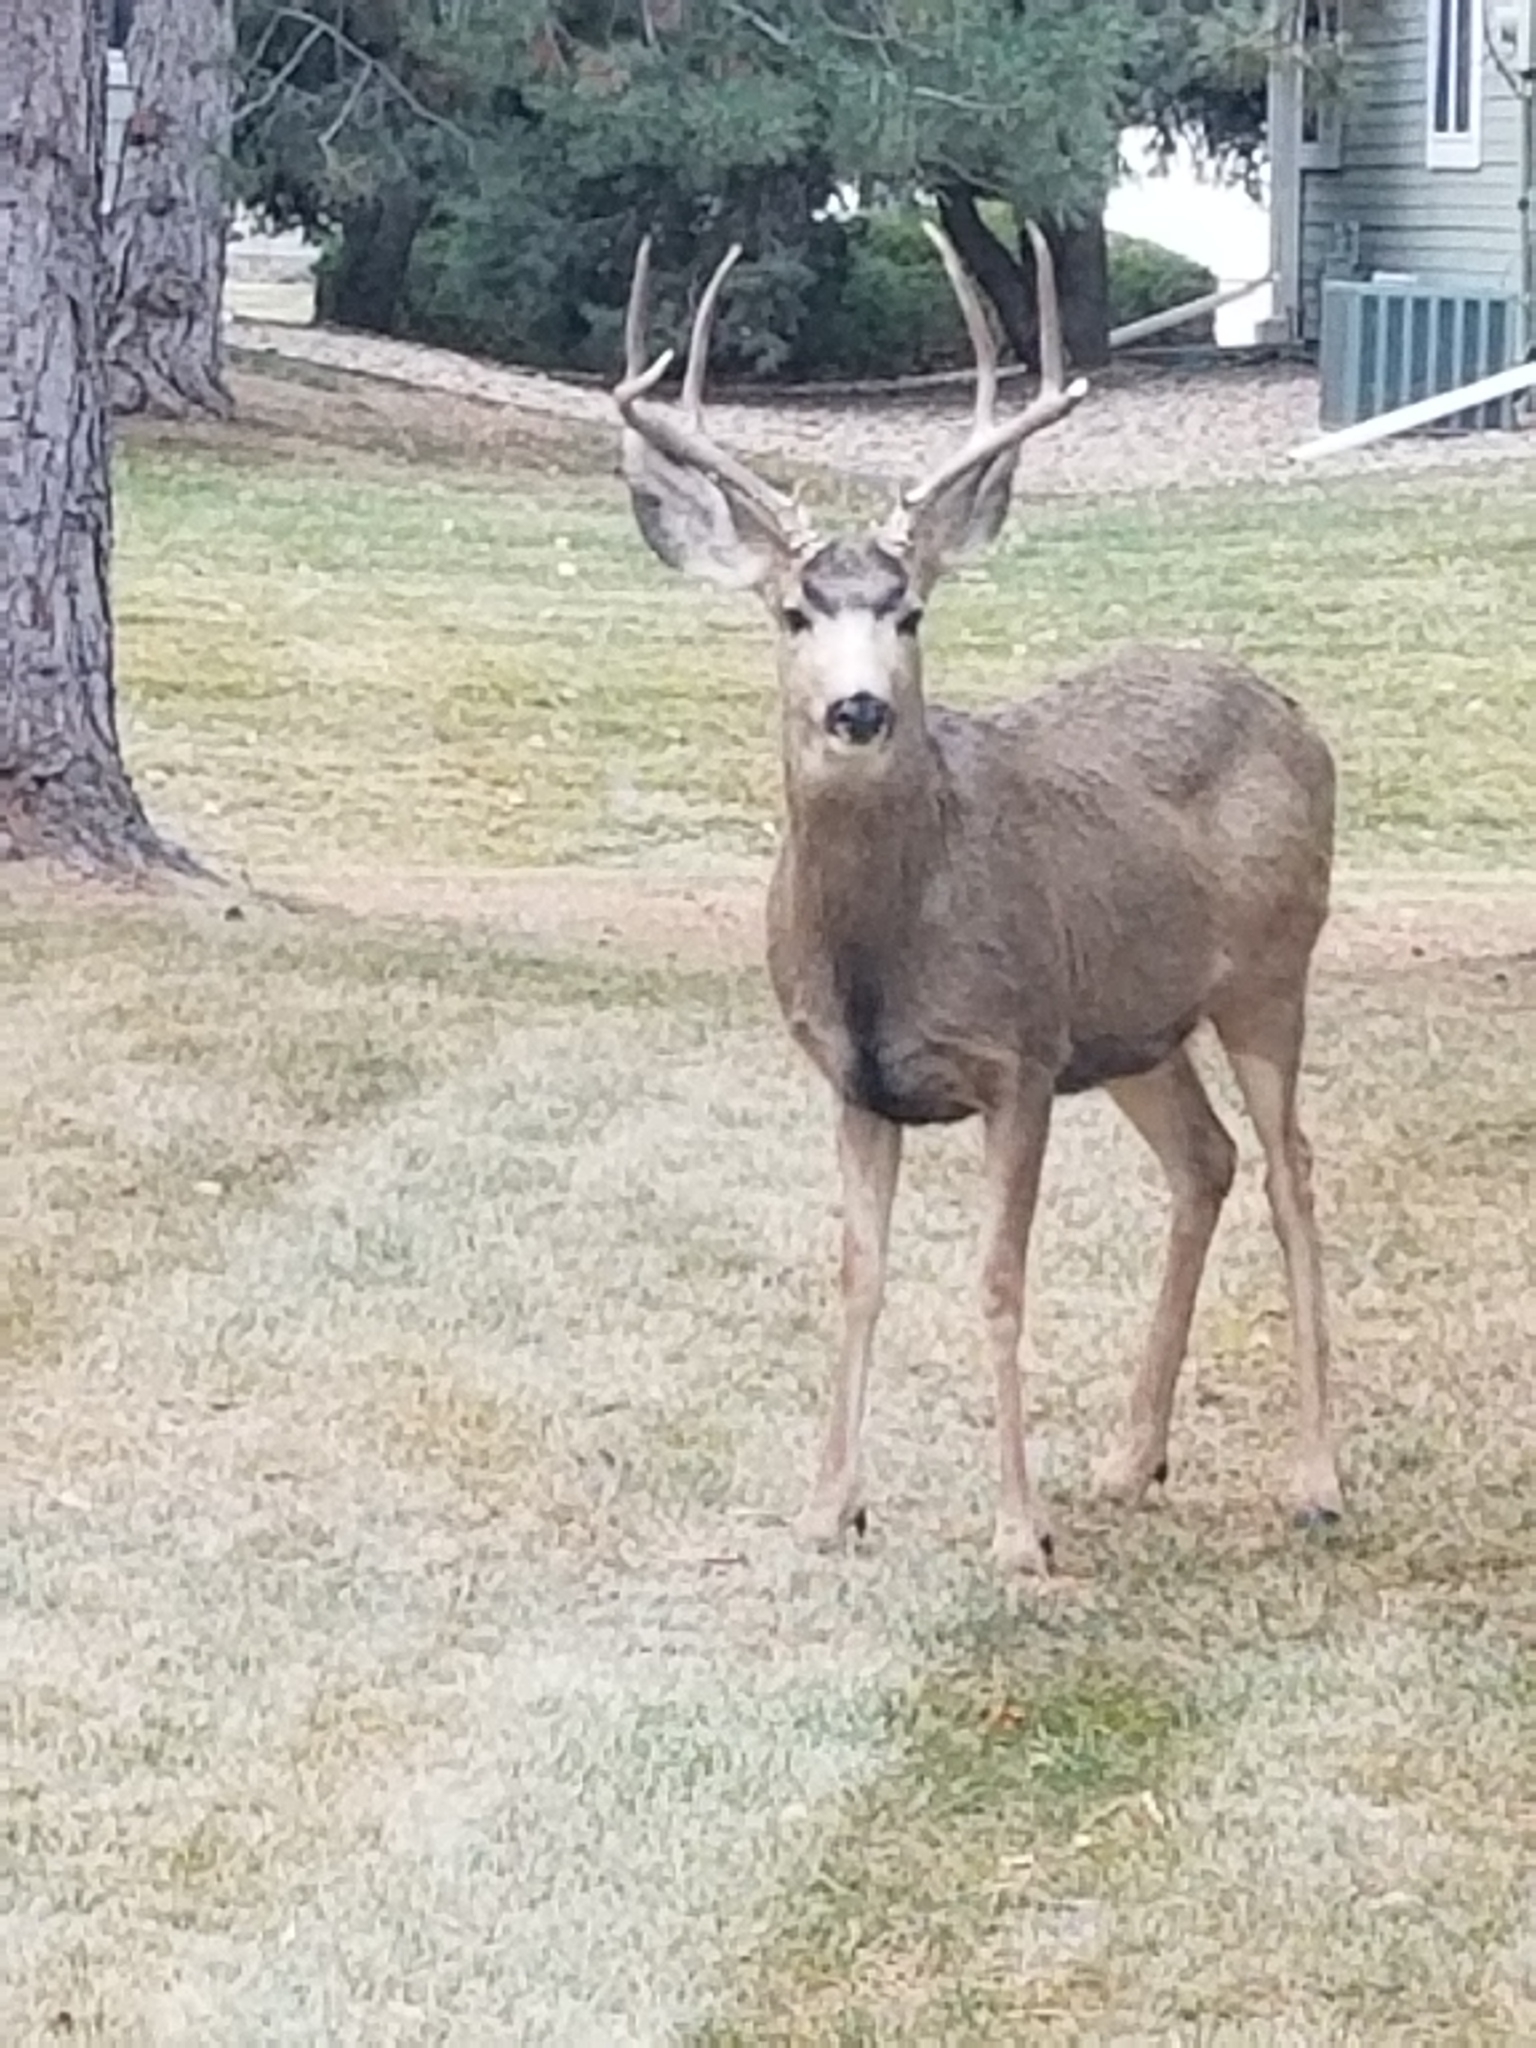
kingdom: Animalia
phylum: Chordata
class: Mammalia
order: Artiodactyla
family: Cervidae
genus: Odocoileus
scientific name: Odocoileus hemionus
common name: Mule deer
